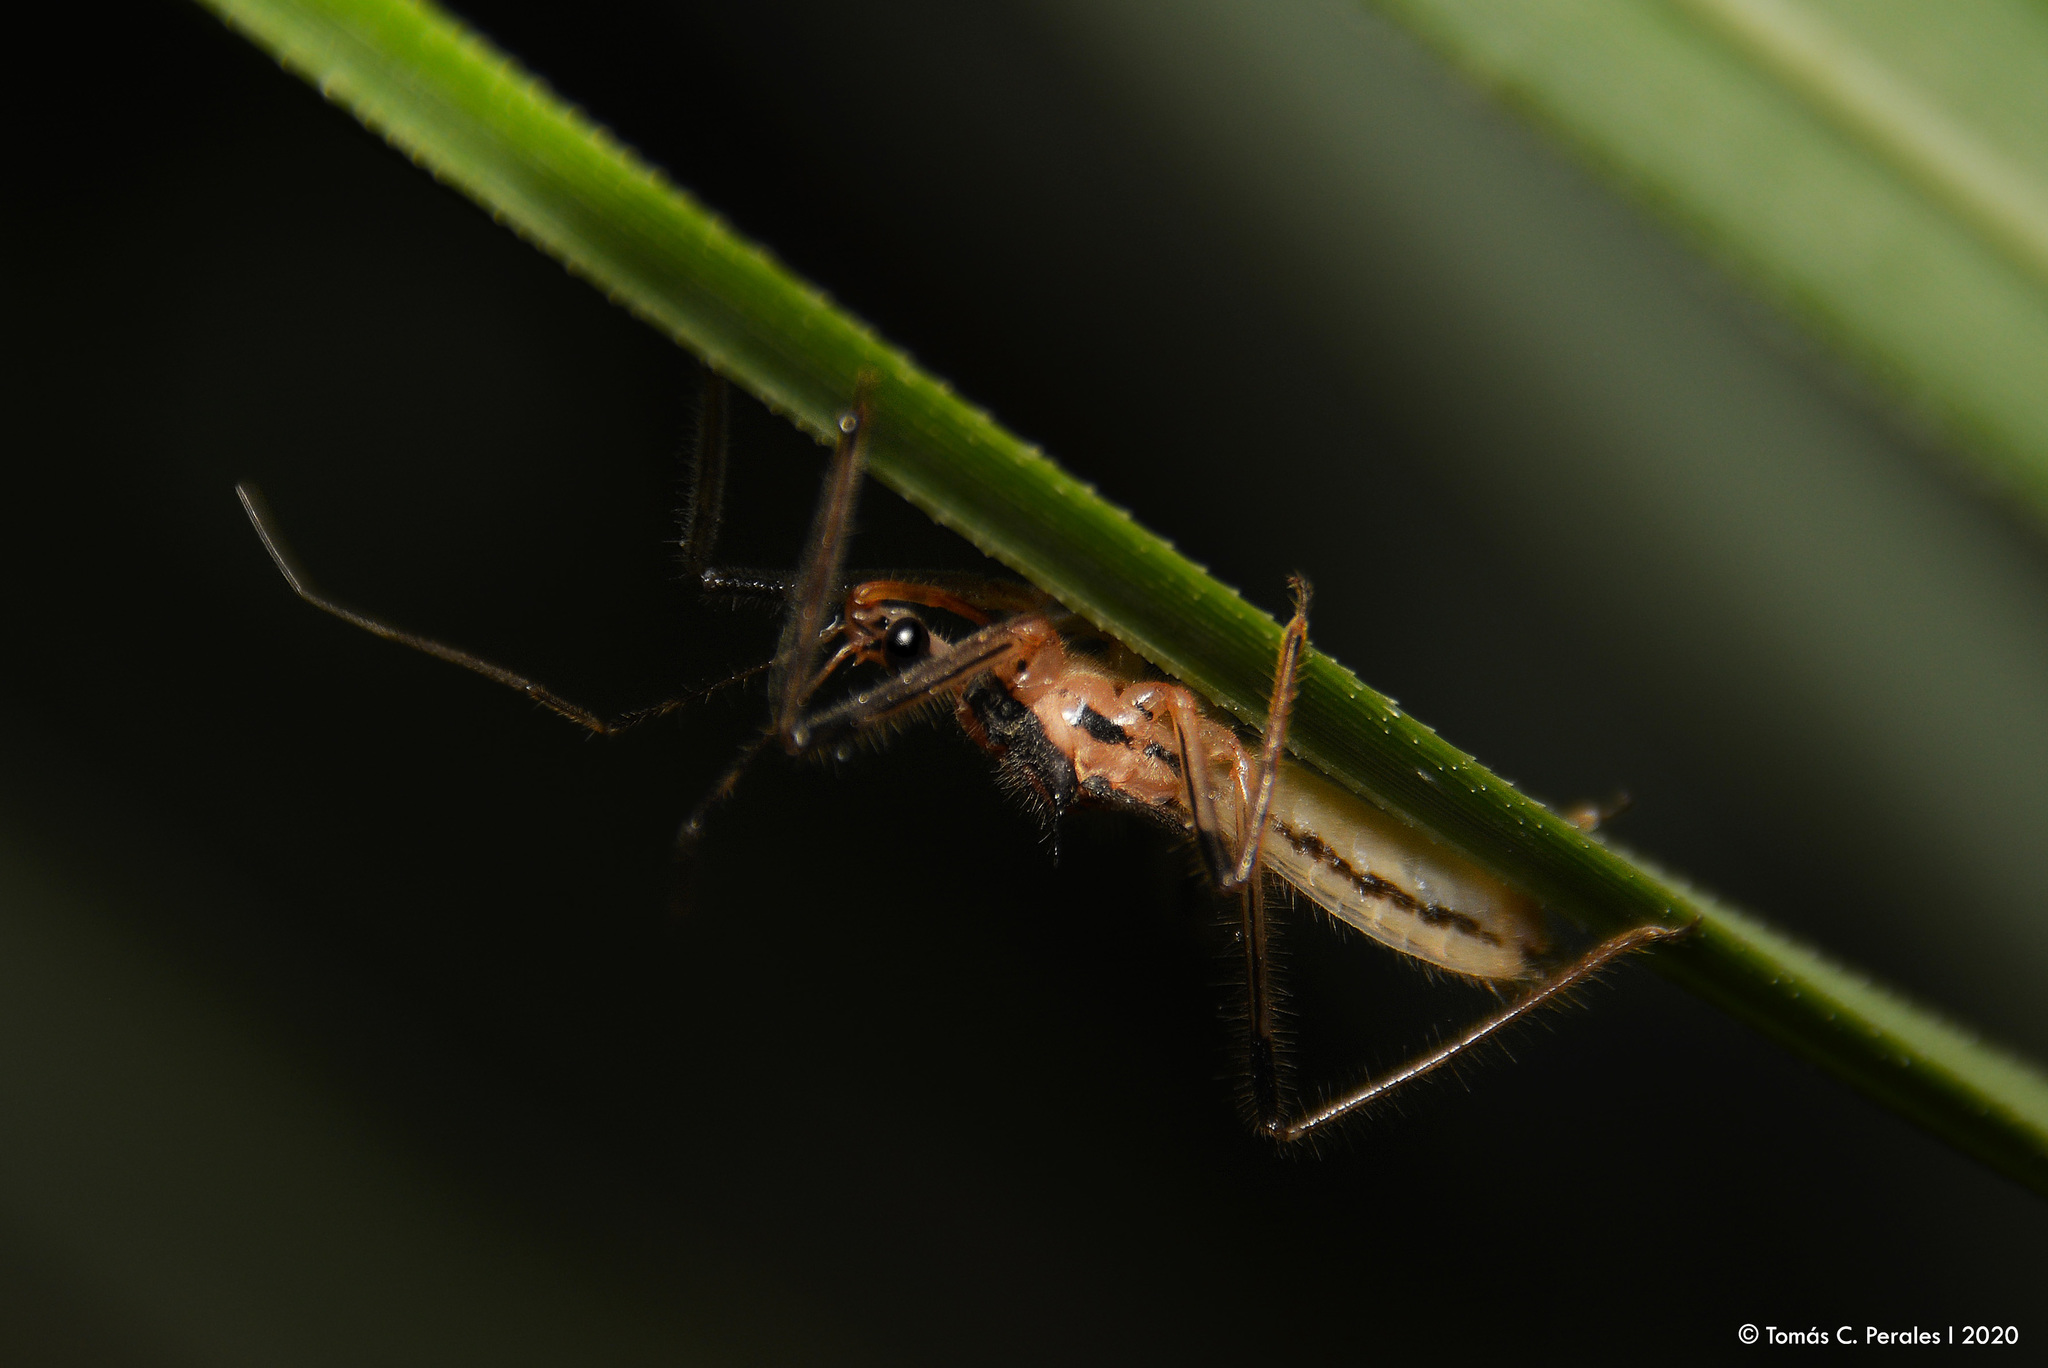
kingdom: Animalia
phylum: Arthropoda
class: Insecta
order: Hemiptera
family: Reduviidae
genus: Repipta
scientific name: Repipta argentinensis
